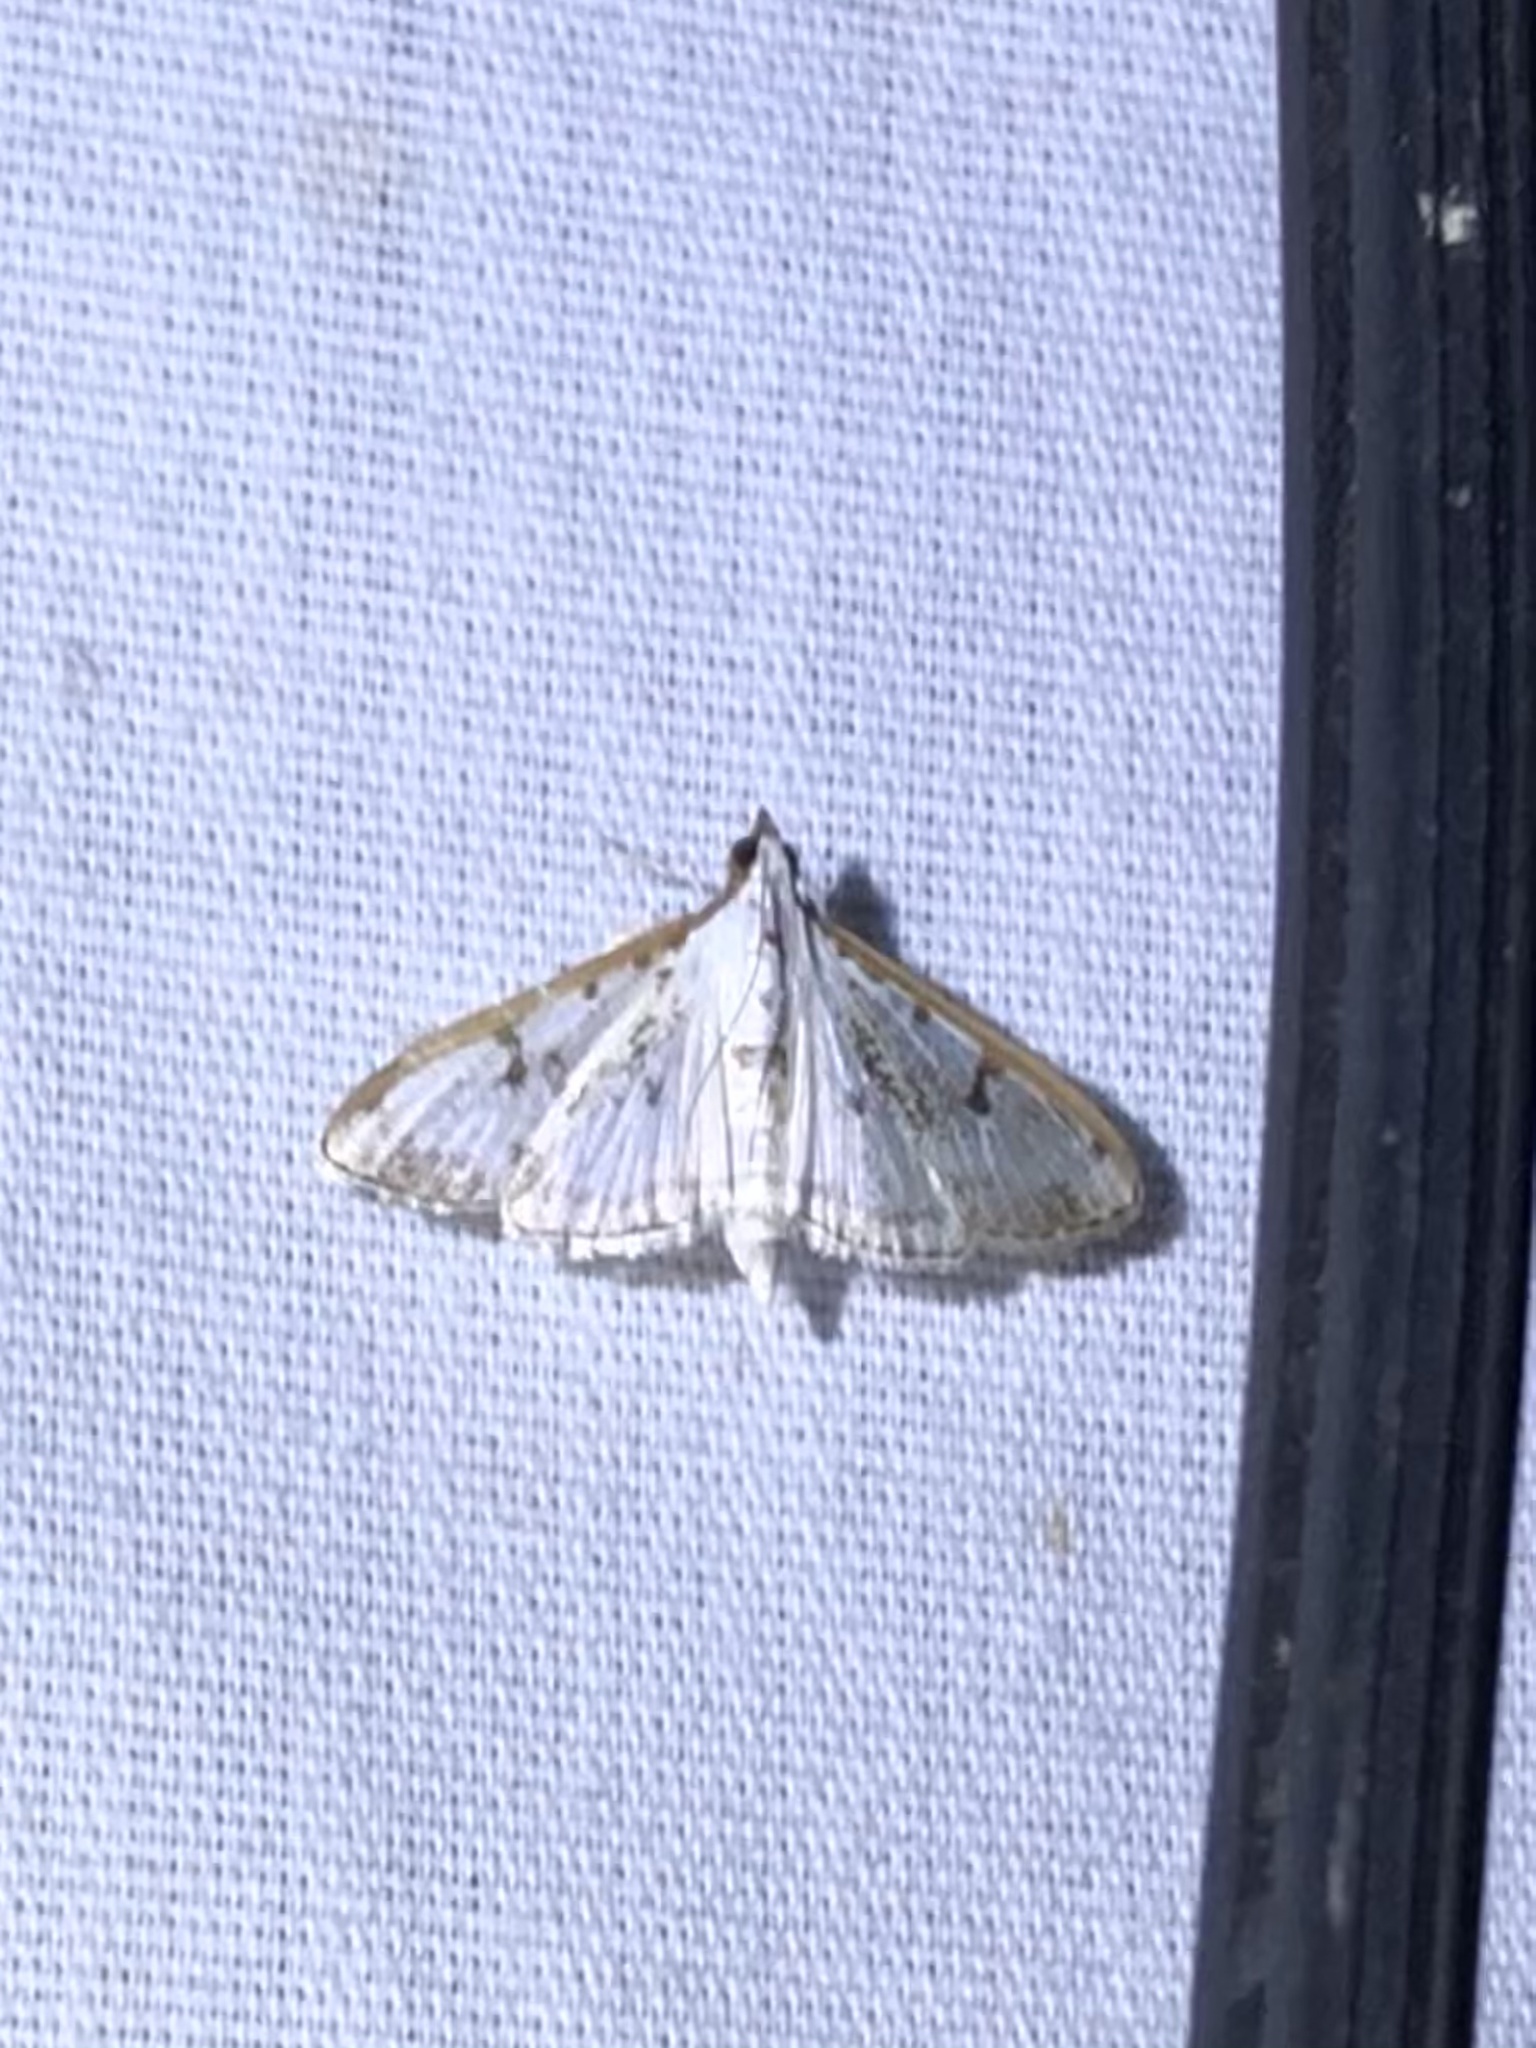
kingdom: Animalia
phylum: Arthropoda
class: Insecta
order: Lepidoptera
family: Crambidae
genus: Palpita
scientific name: Palpita gracilalis
